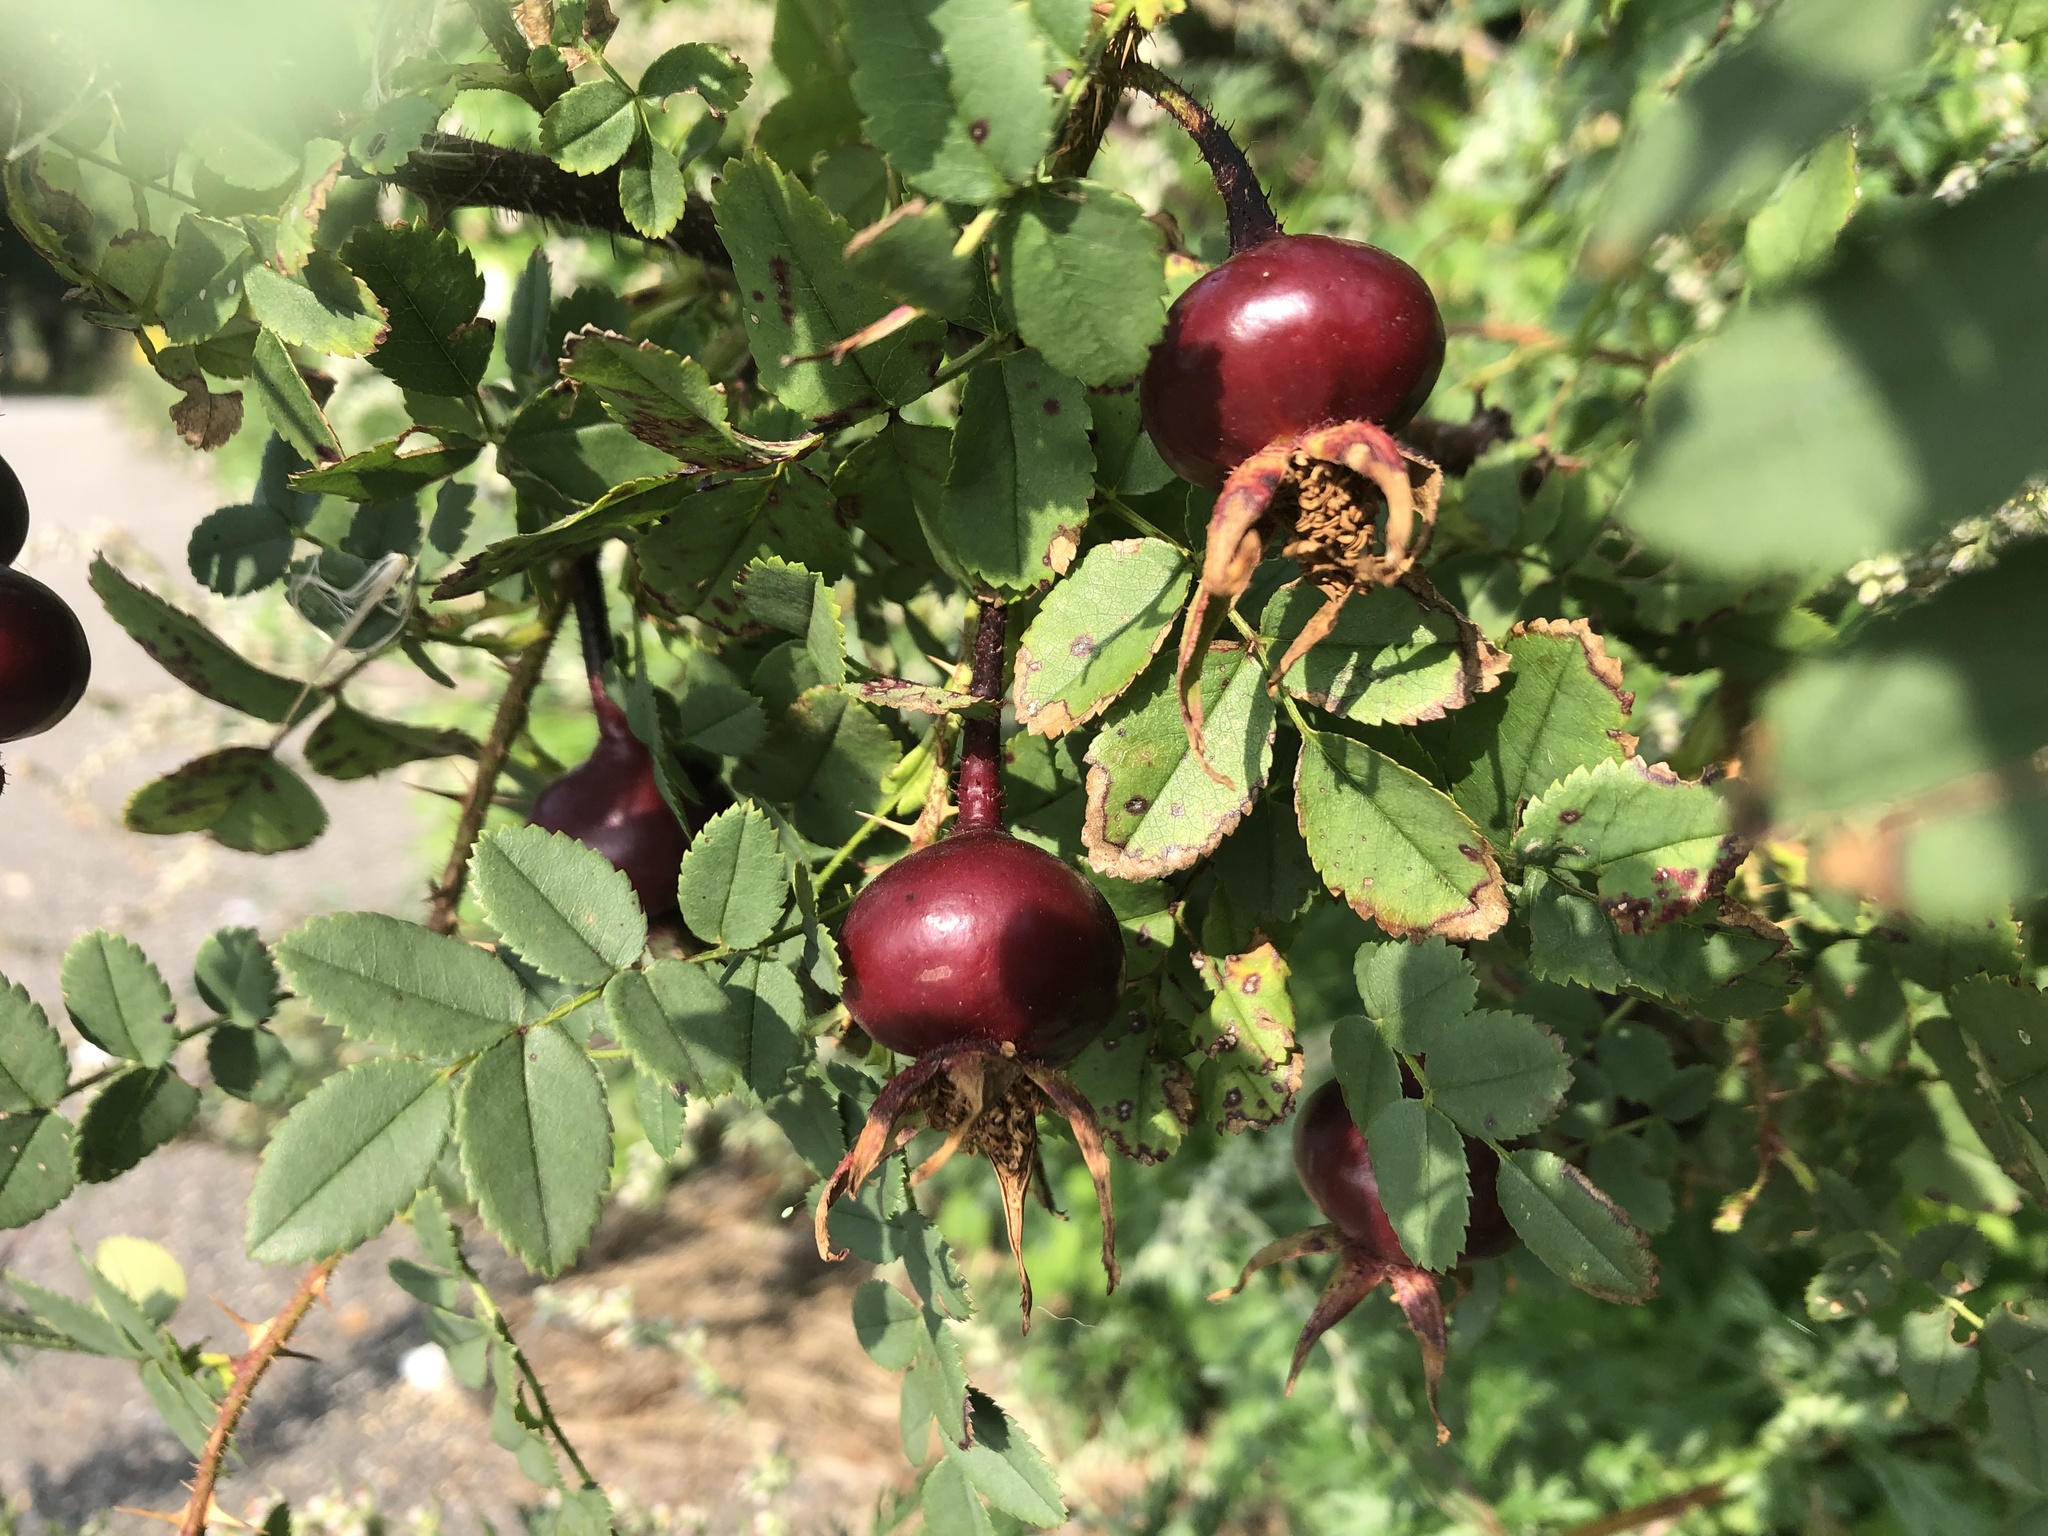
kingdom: Plantae
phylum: Tracheophyta
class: Magnoliopsida
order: Rosales
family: Rosaceae
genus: Rosa
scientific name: Rosa spinosissima
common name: Burnet rose
